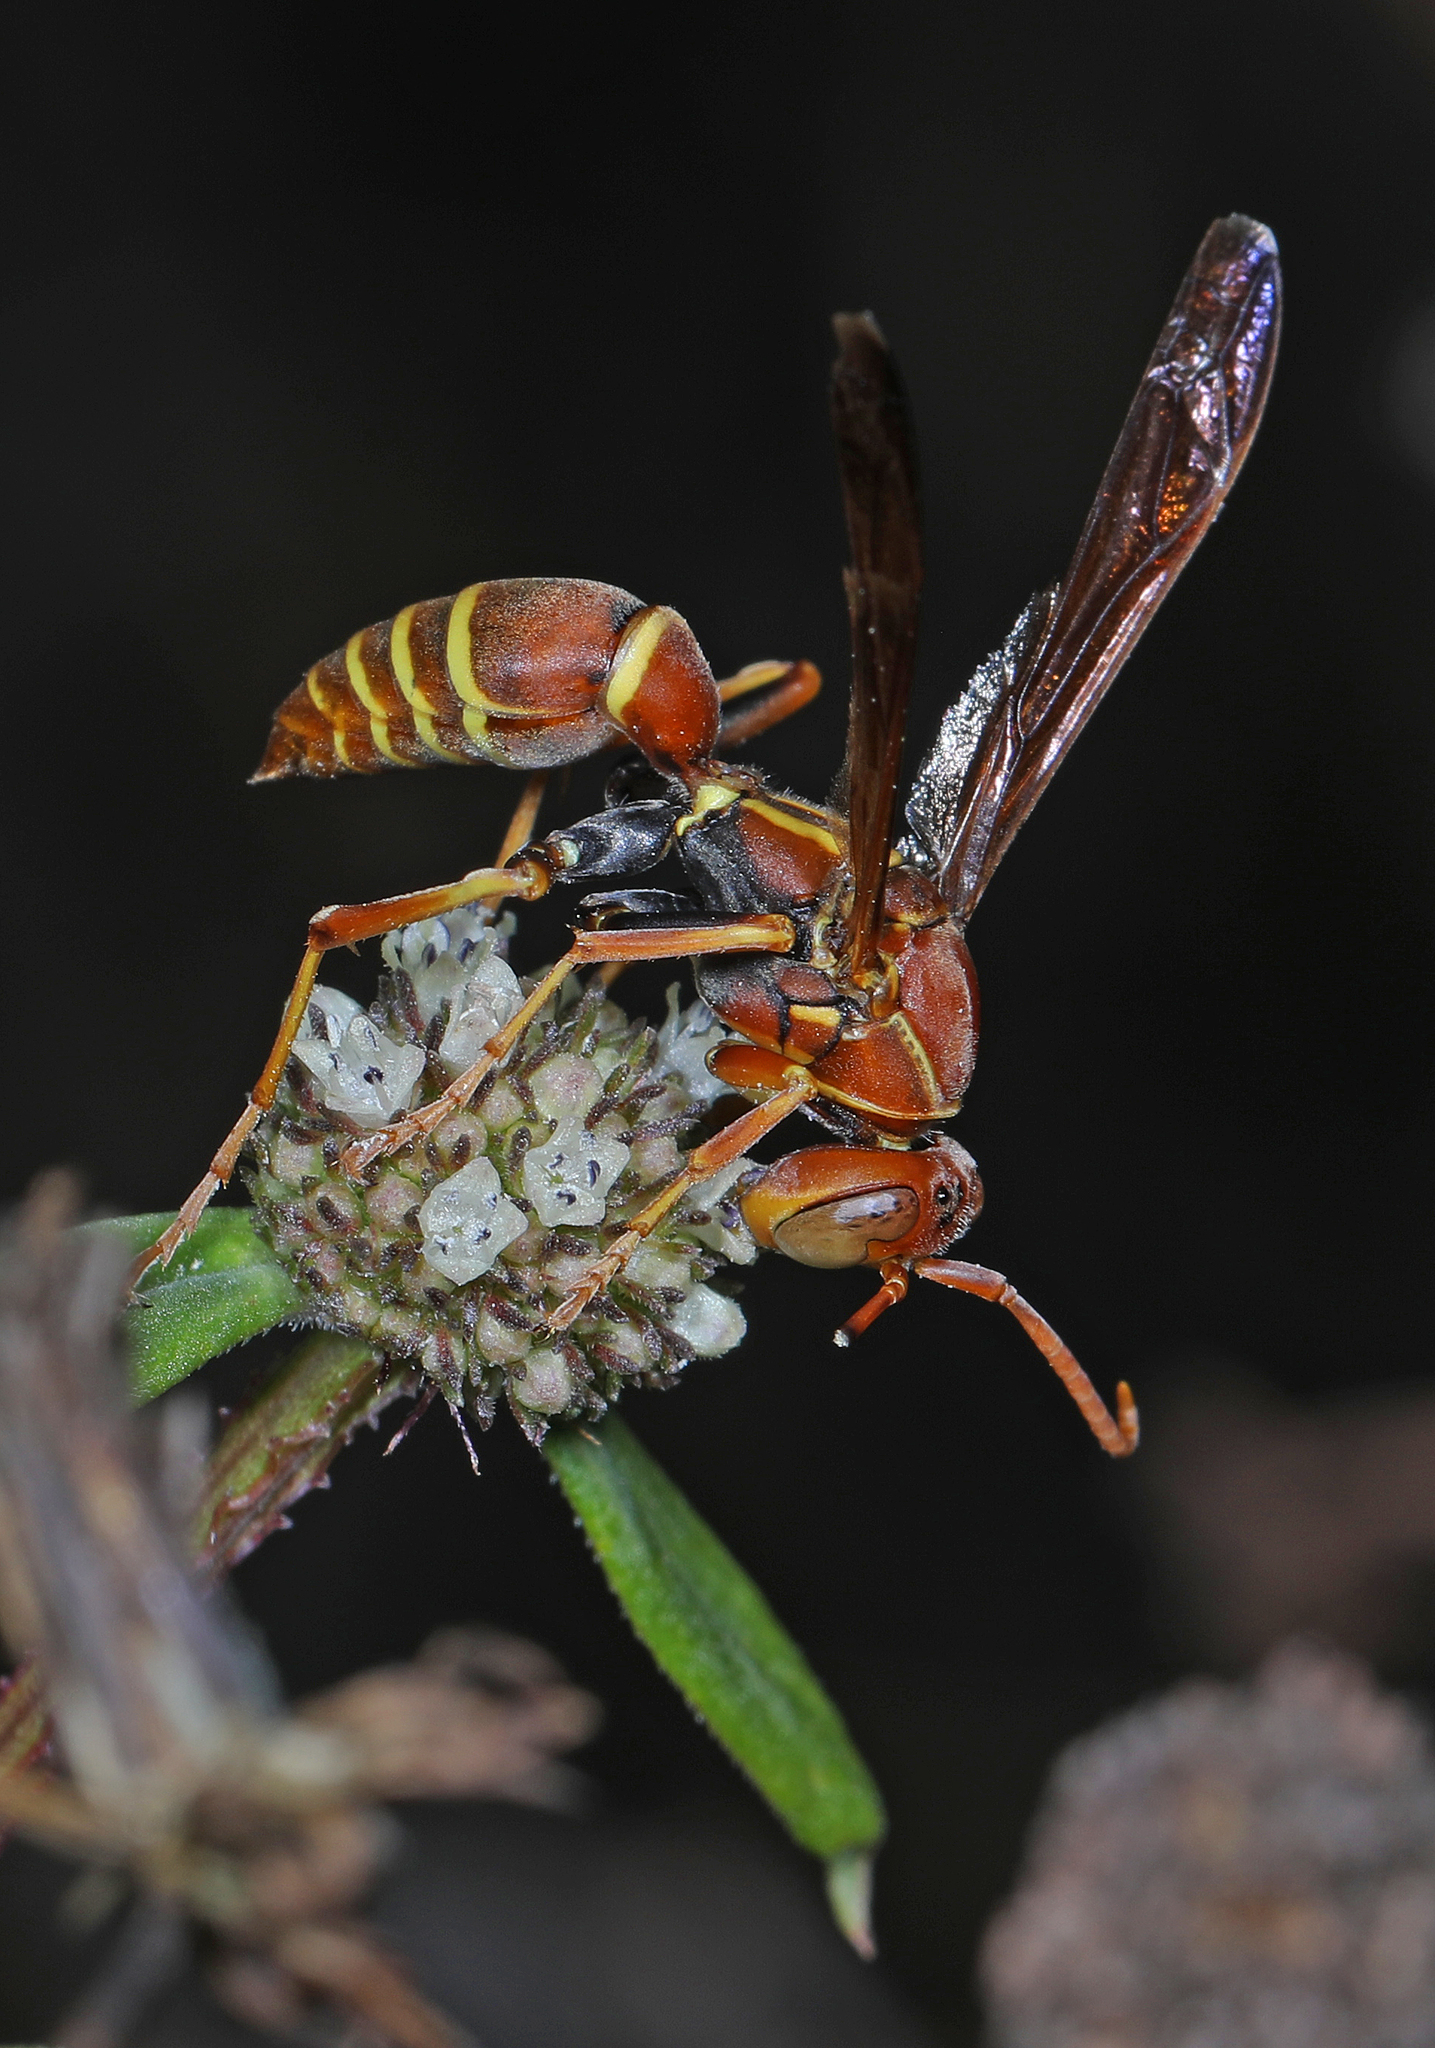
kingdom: Animalia
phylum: Arthropoda
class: Insecta
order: Hymenoptera
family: Eumenidae
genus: Polistes
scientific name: Polistes dorsalis
